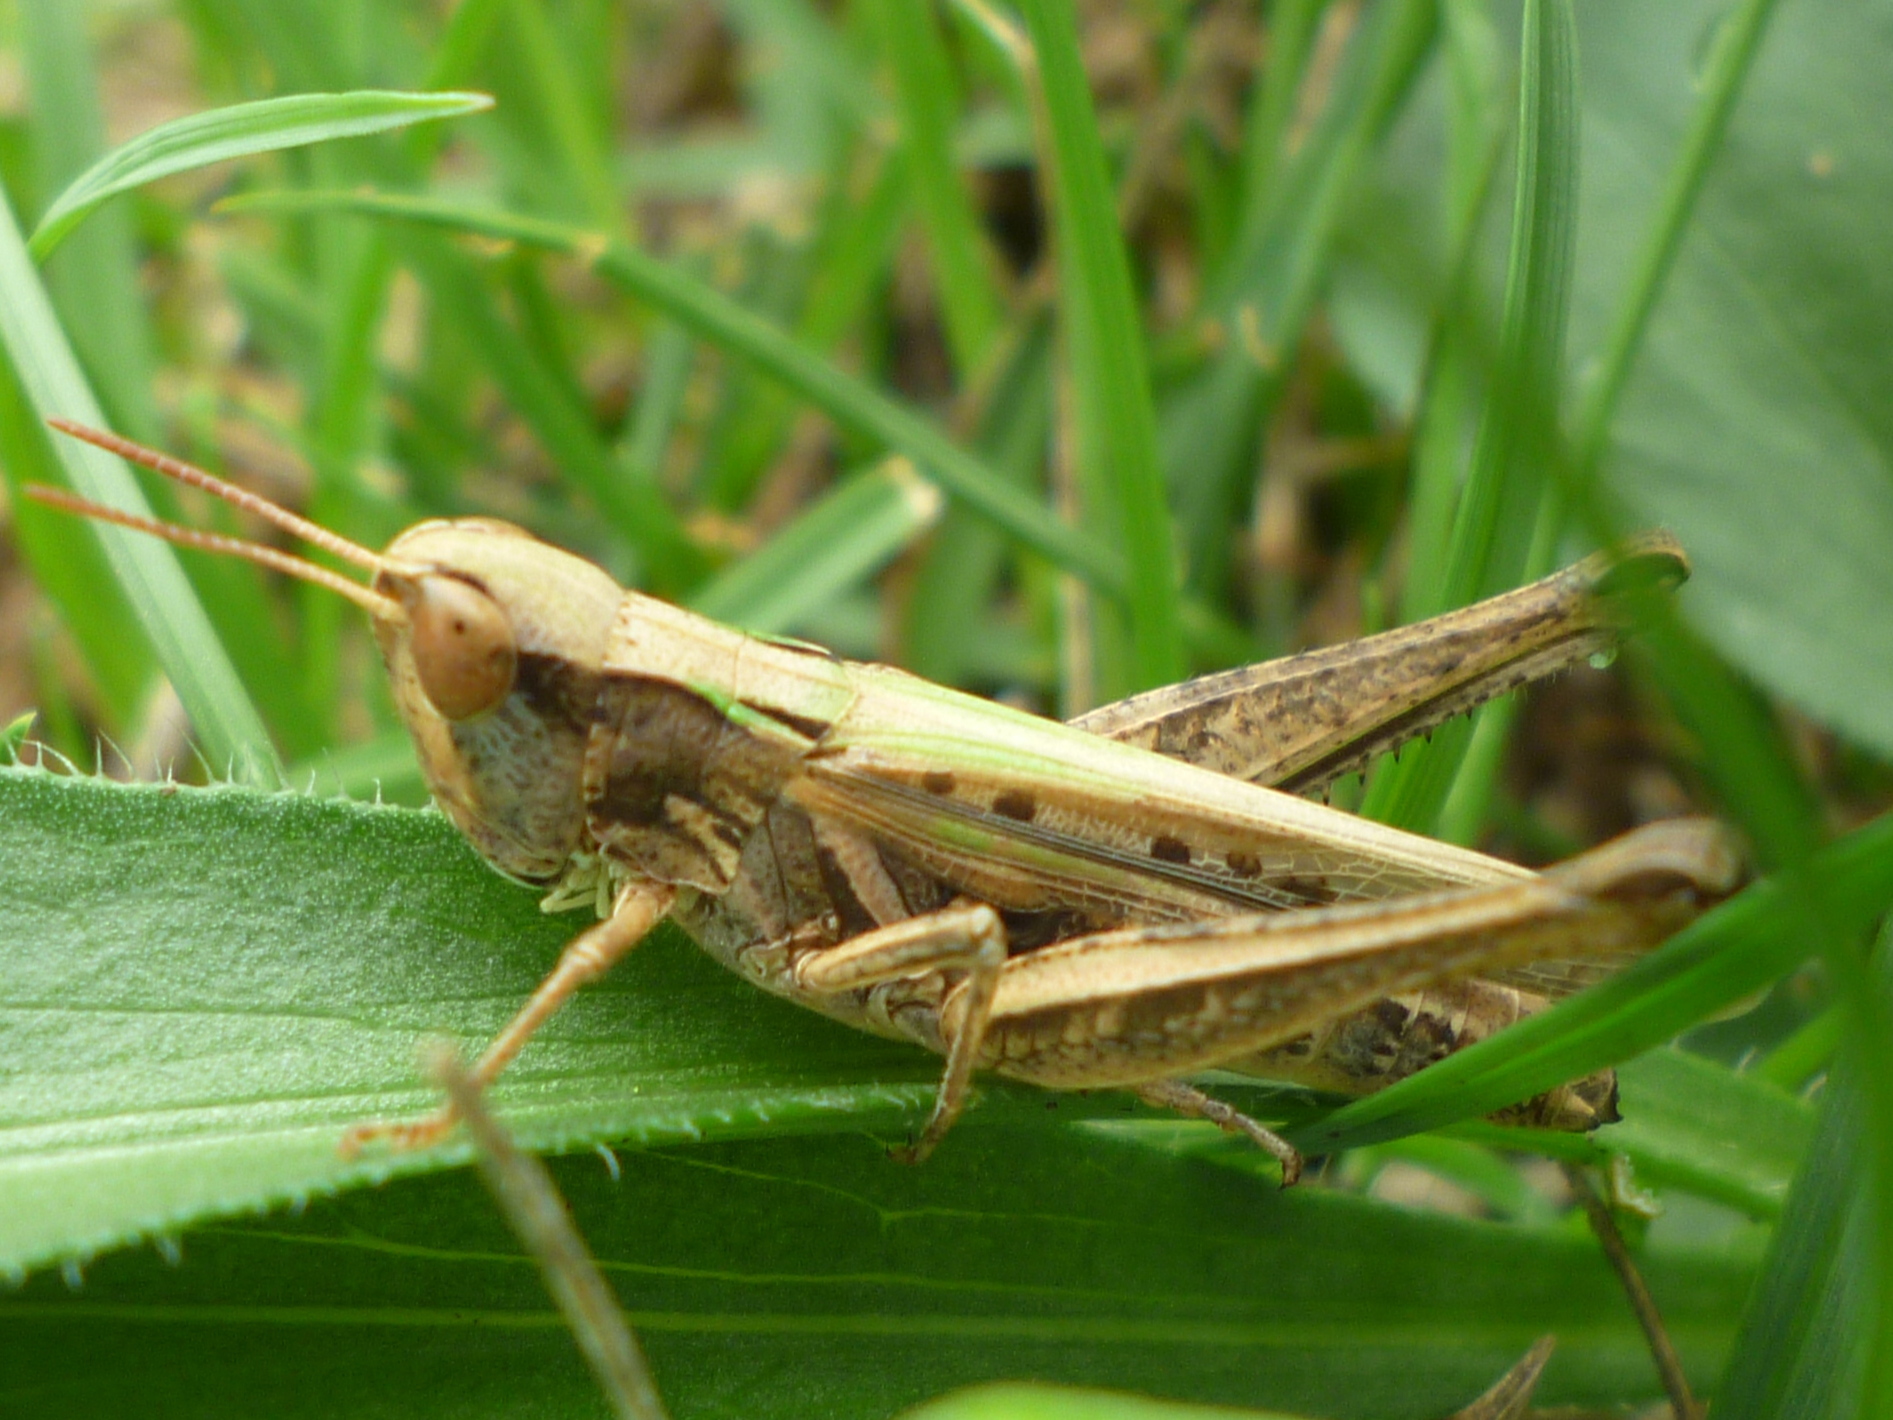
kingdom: Animalia
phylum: Arthropoda
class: Insecta
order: Orthoptera
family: Acrididae
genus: Orphulella
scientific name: Orphulella speciosa
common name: Pasture grasshopper
